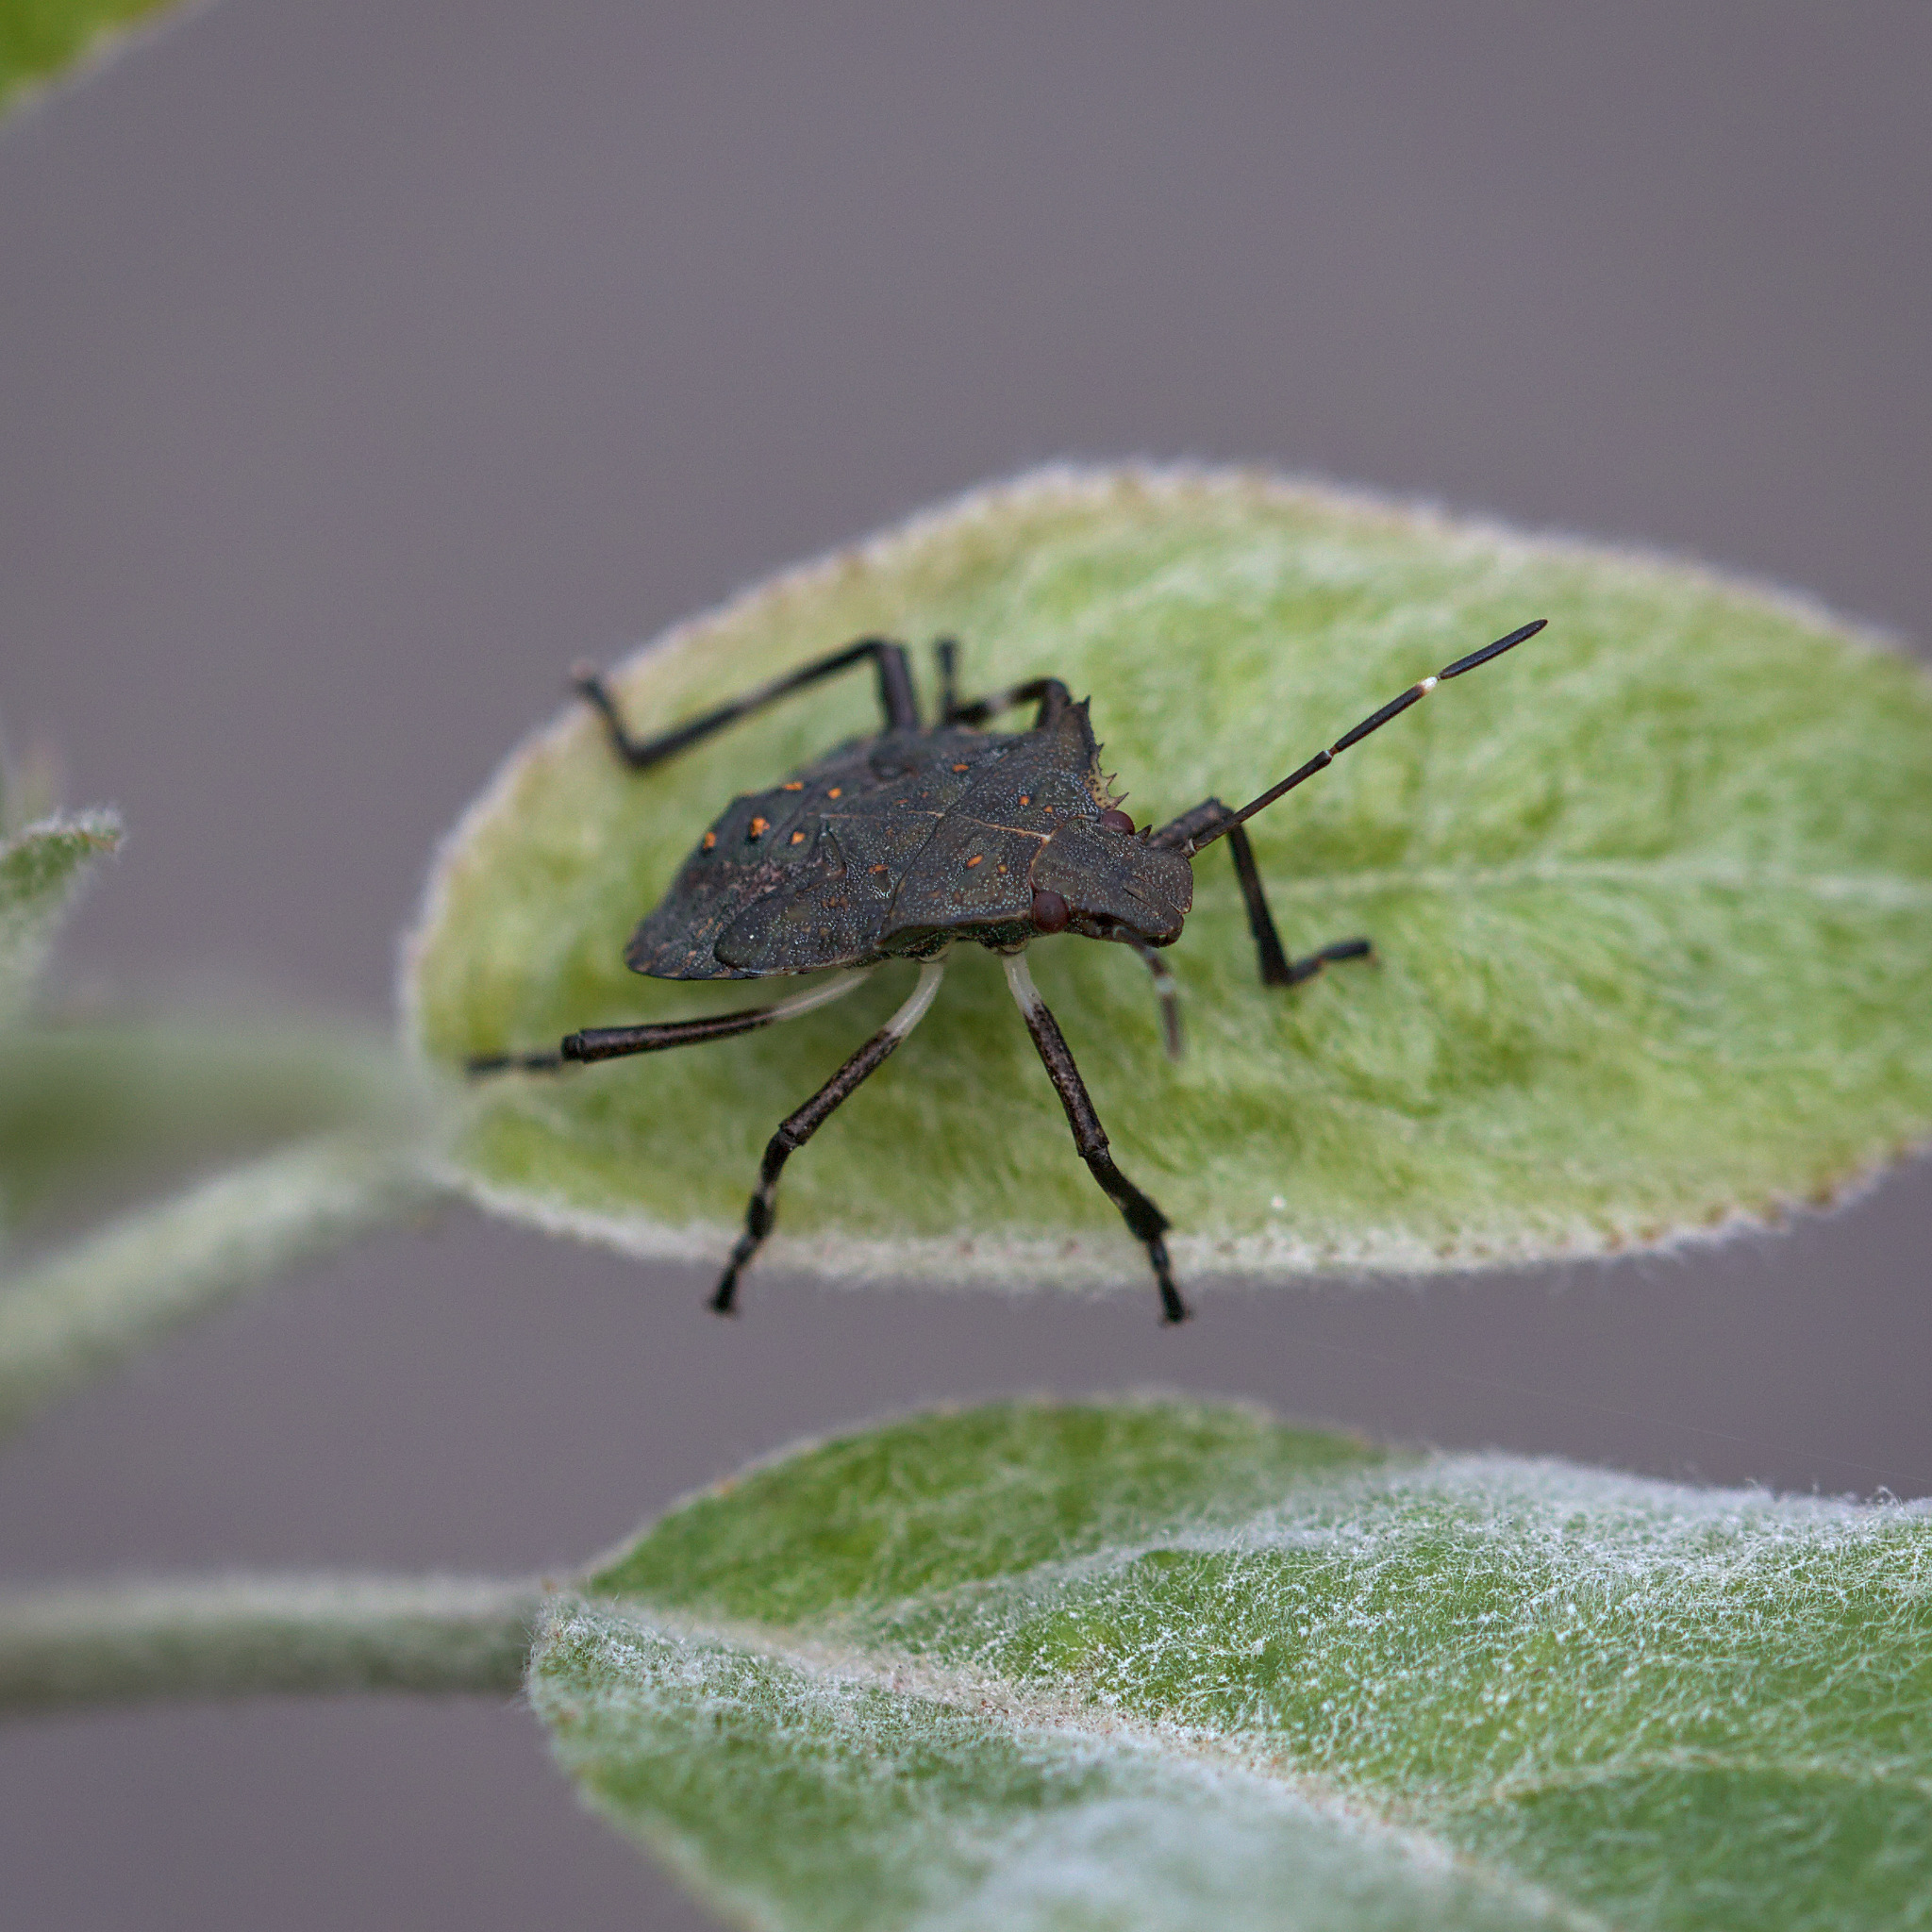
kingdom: Animalia
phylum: Arthropoda
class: Insecta
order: Hemiptera
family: Pentatomidae
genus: Halyomorpha
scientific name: Halyomorpha halys
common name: Brown marmorated stink bug
